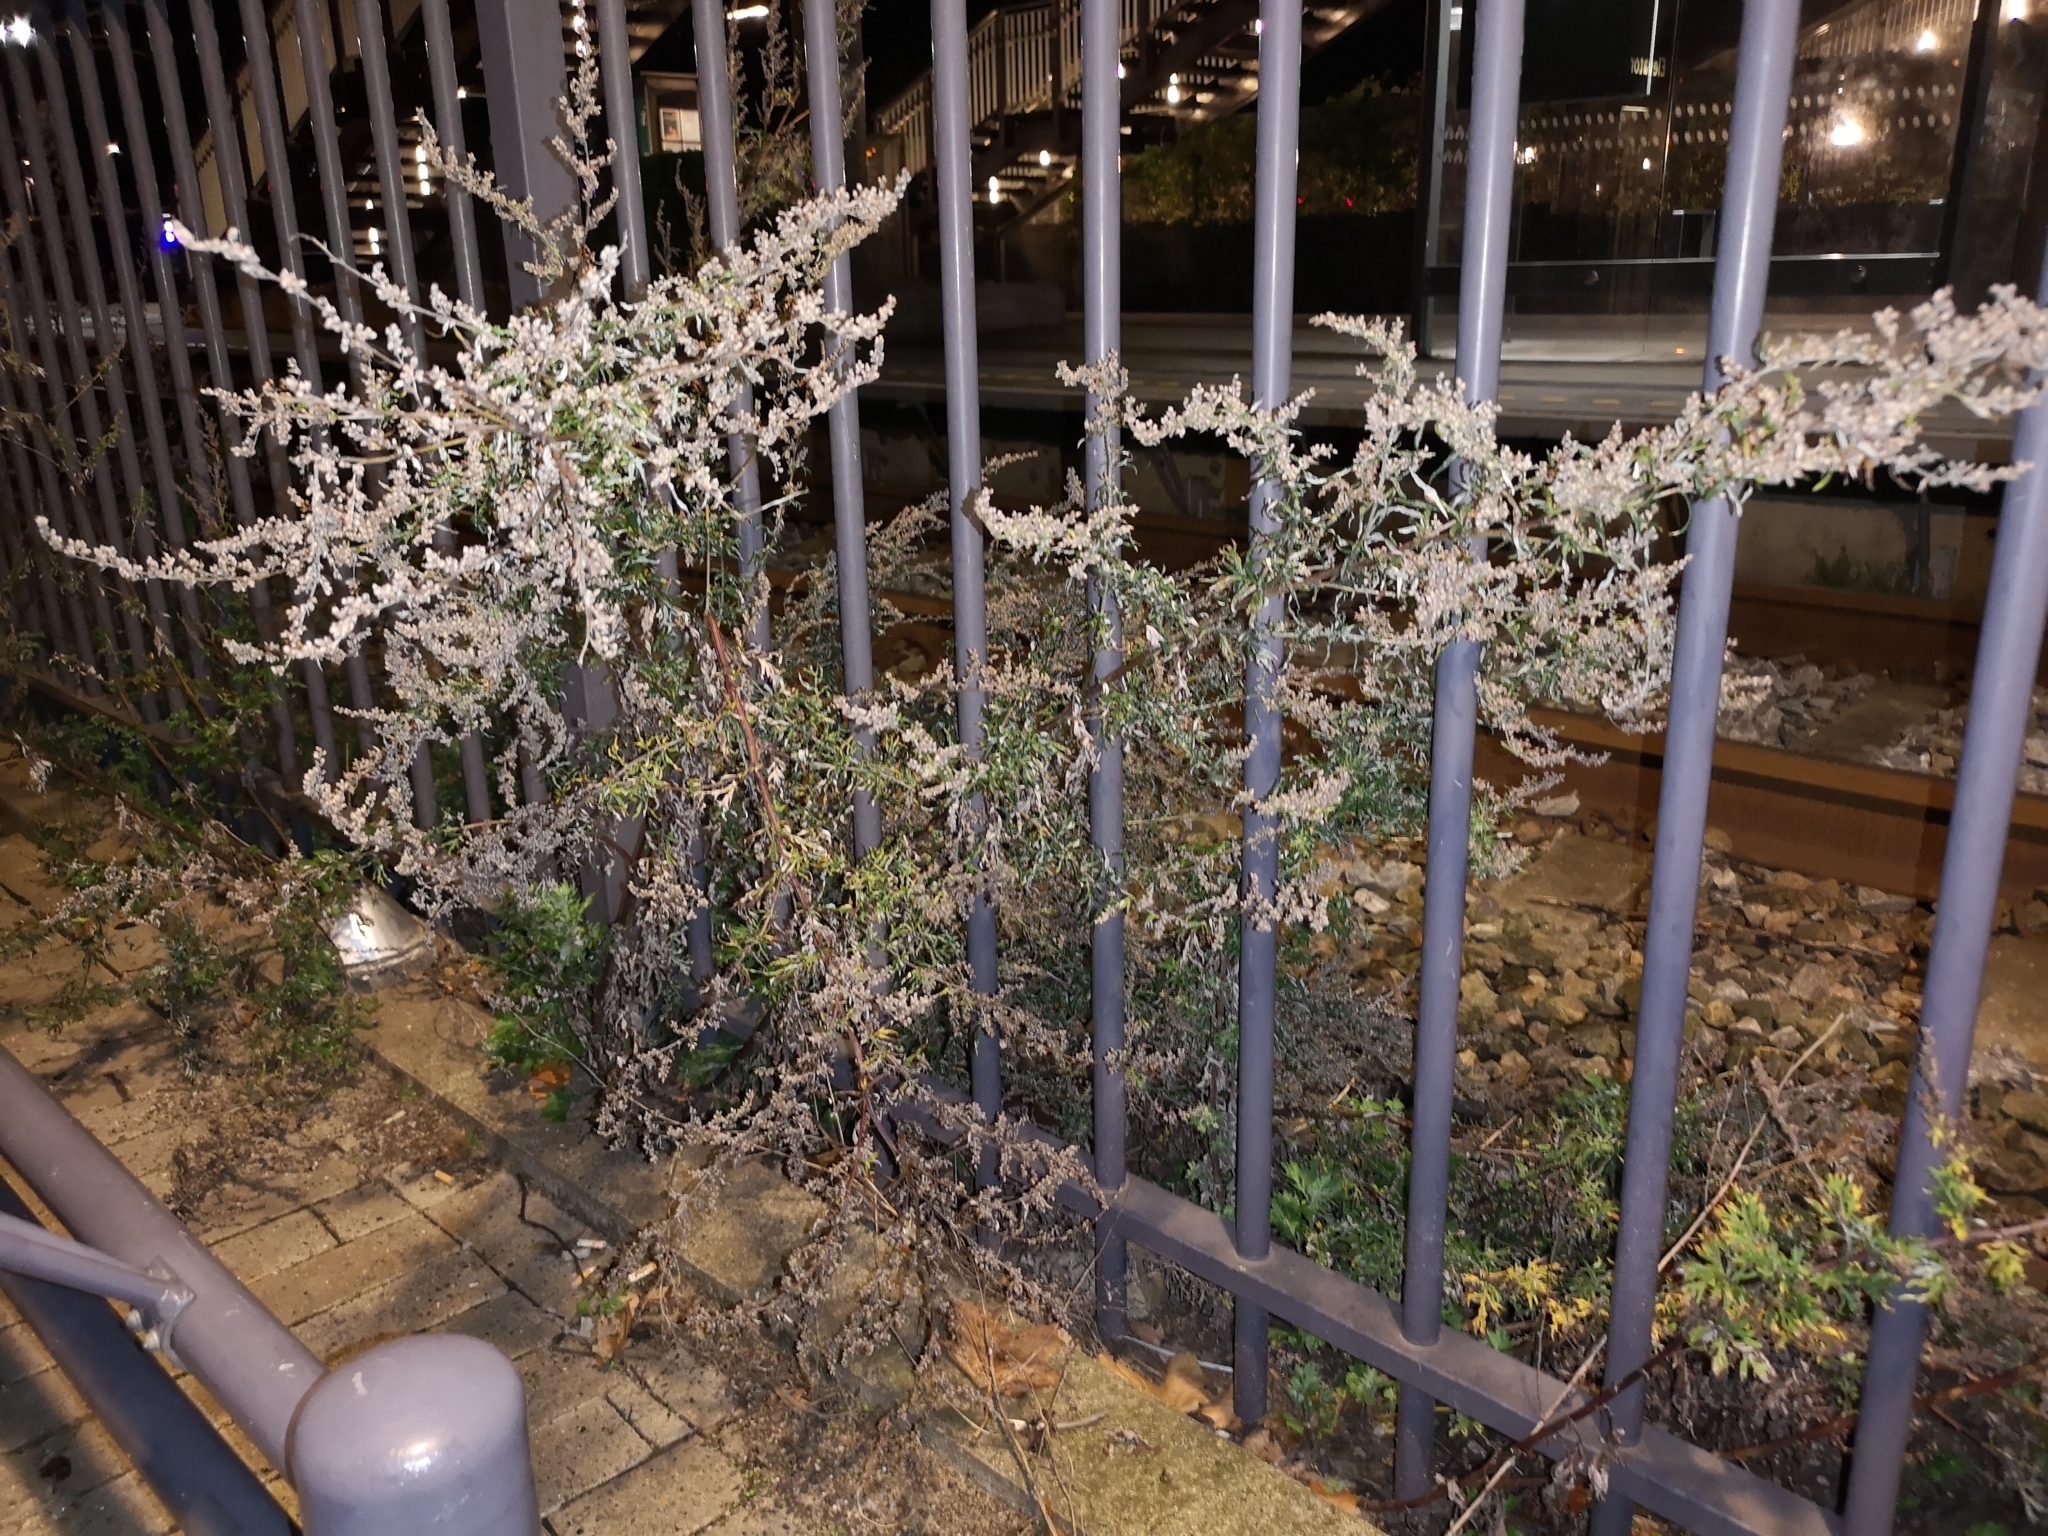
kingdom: Plantae
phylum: Tracheophyta
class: Magnoliopsida
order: Asterales
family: Asteraceae
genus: Artemisia
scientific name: Artemisia vulgaris
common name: Mugwort
